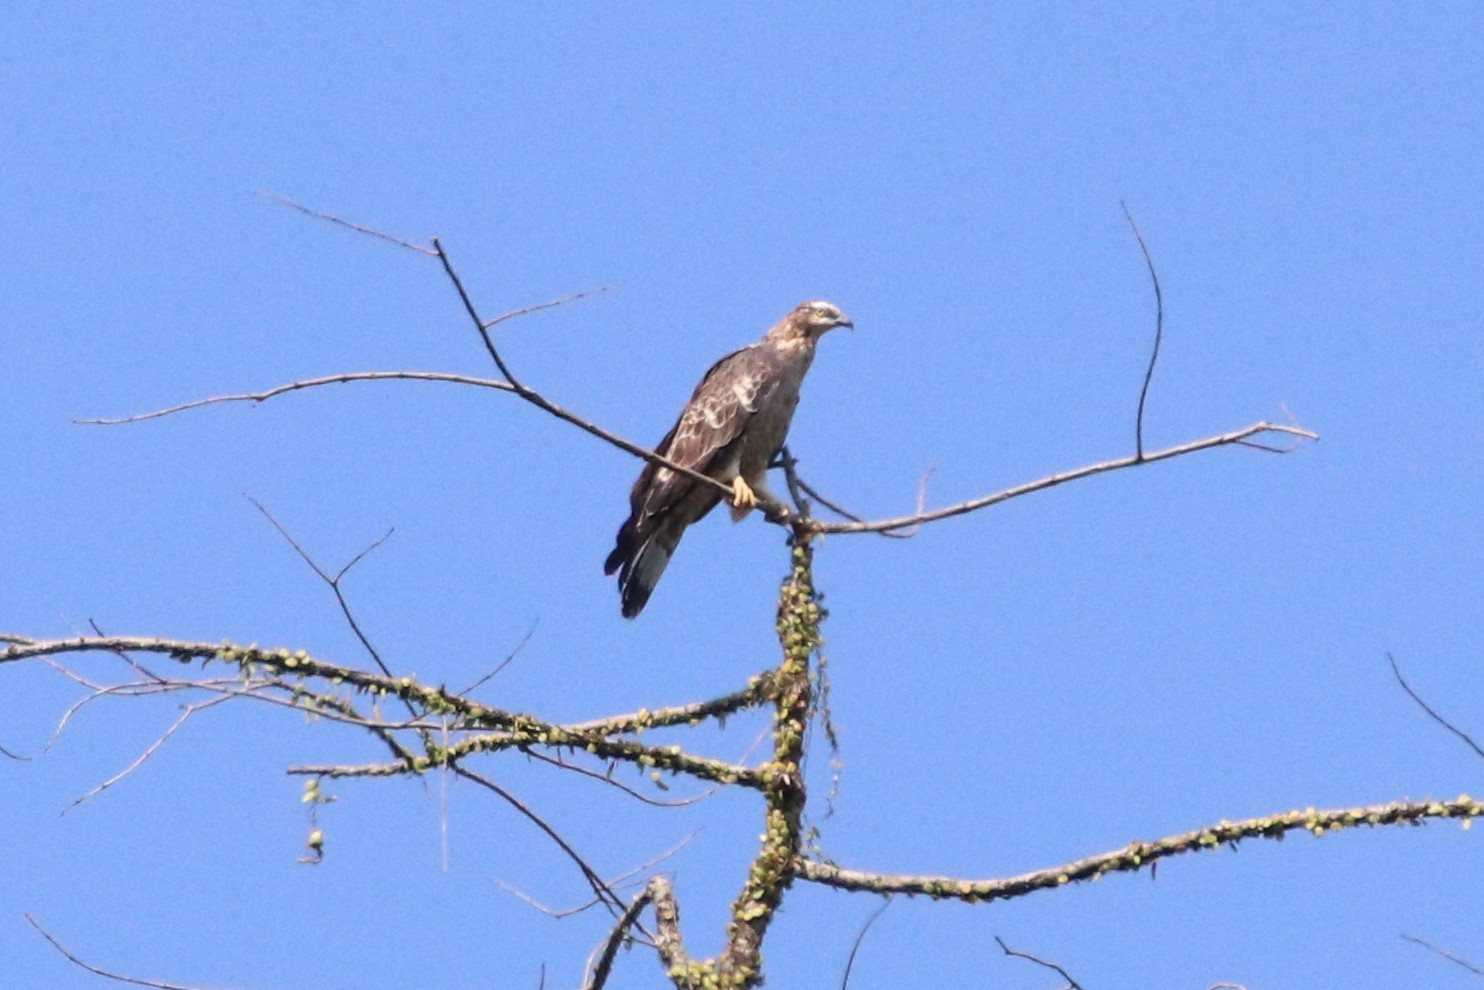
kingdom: Animalia
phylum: Chordata
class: Aves
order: Accipitriformes
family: Accipitridae
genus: Pernis
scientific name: Pernis ptilorhynchus
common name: Crested honey buzzard
